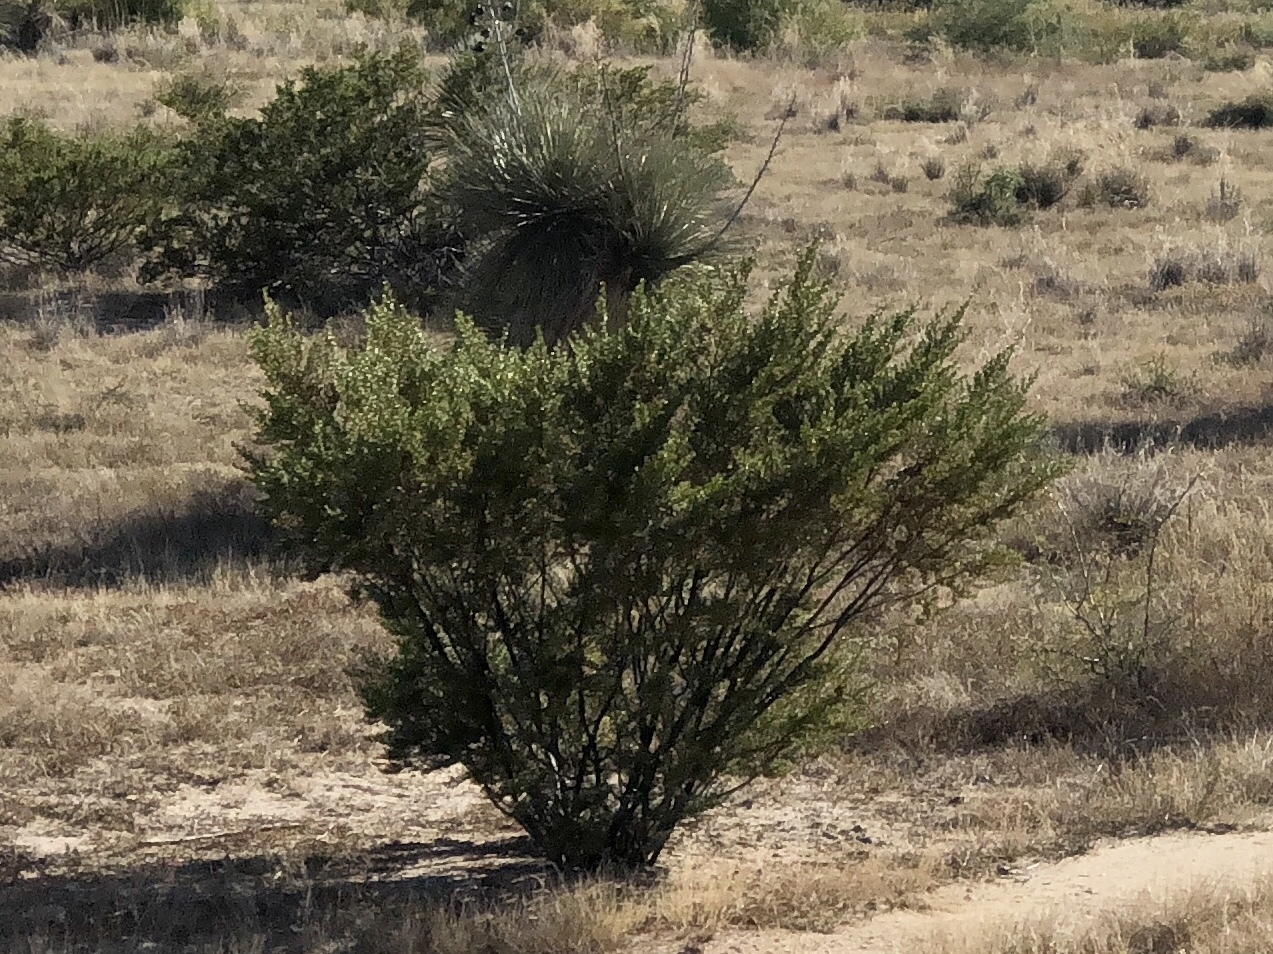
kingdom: Plantae
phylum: Tracheophyta
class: Magnoliopsida
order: Zygophyllales
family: Zygophyllaceae
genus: Larrea
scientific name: Larrea tridentata
